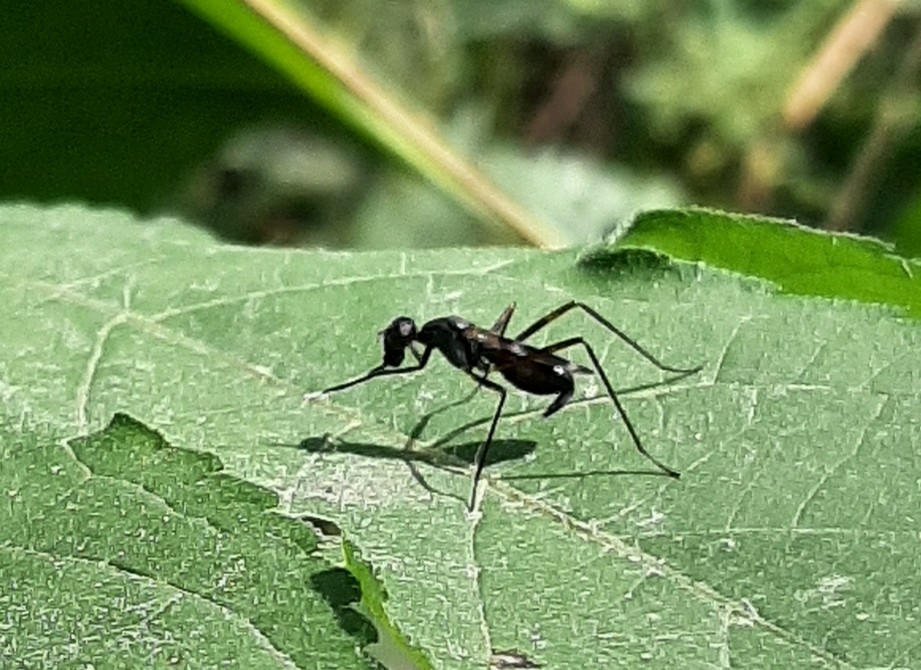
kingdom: Animalia
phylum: Arthropoda
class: Insecta
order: Diptera
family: Micropezidae
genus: Taeniaptera
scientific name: Taeniaptera trivittata
